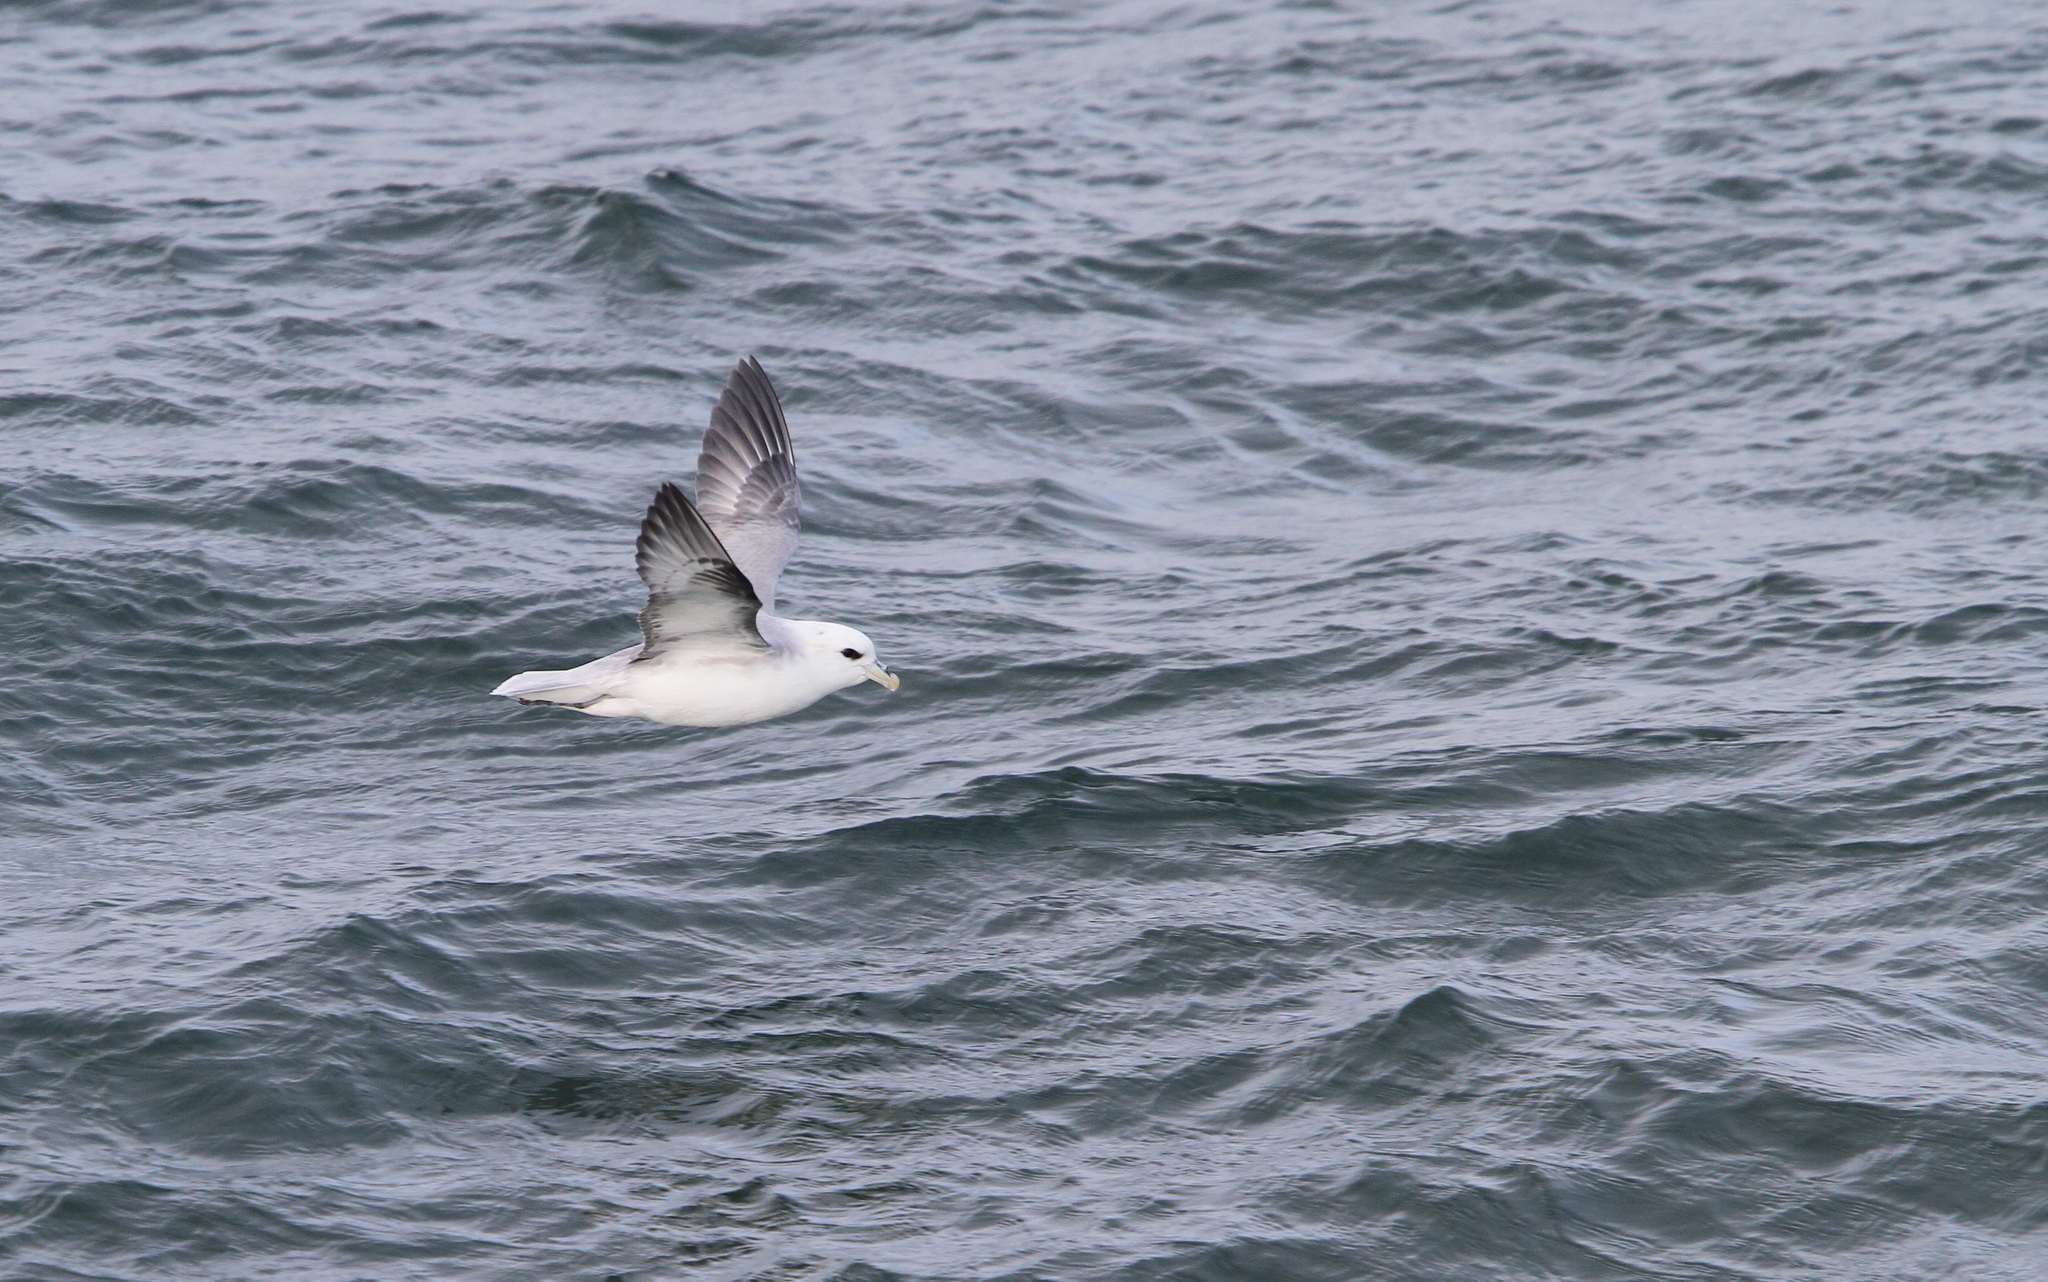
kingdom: Animalia
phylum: Chordata
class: Aves
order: Procellariiformes
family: Procellariidae
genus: Fulmarus
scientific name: Fulmarus glacialis
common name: Northern fulmar
